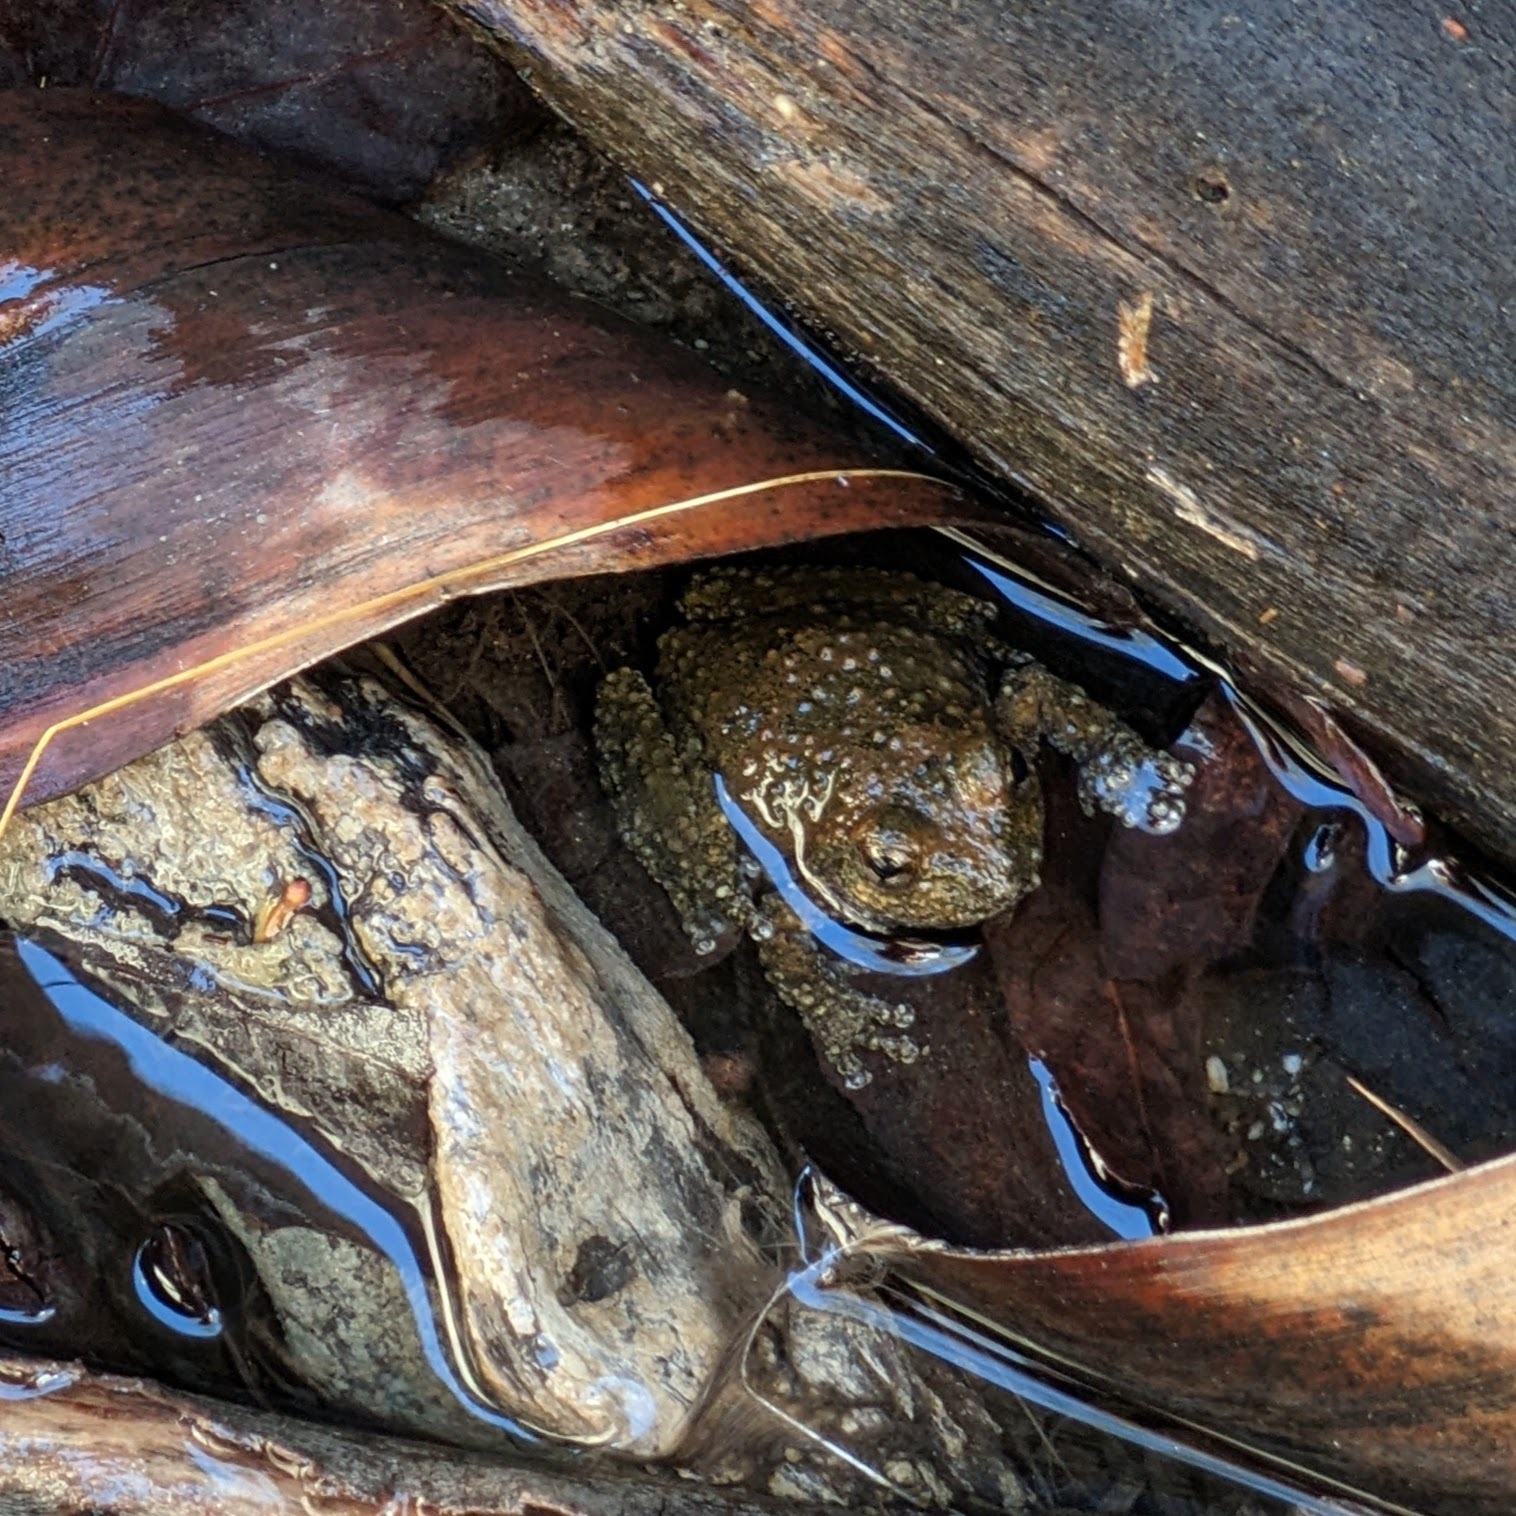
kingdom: Animalia
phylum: Chordata
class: Amphibia
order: Anura
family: Hylidae
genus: Pseudacris
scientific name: Pseudacris cadaverina
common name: California chorus frog
